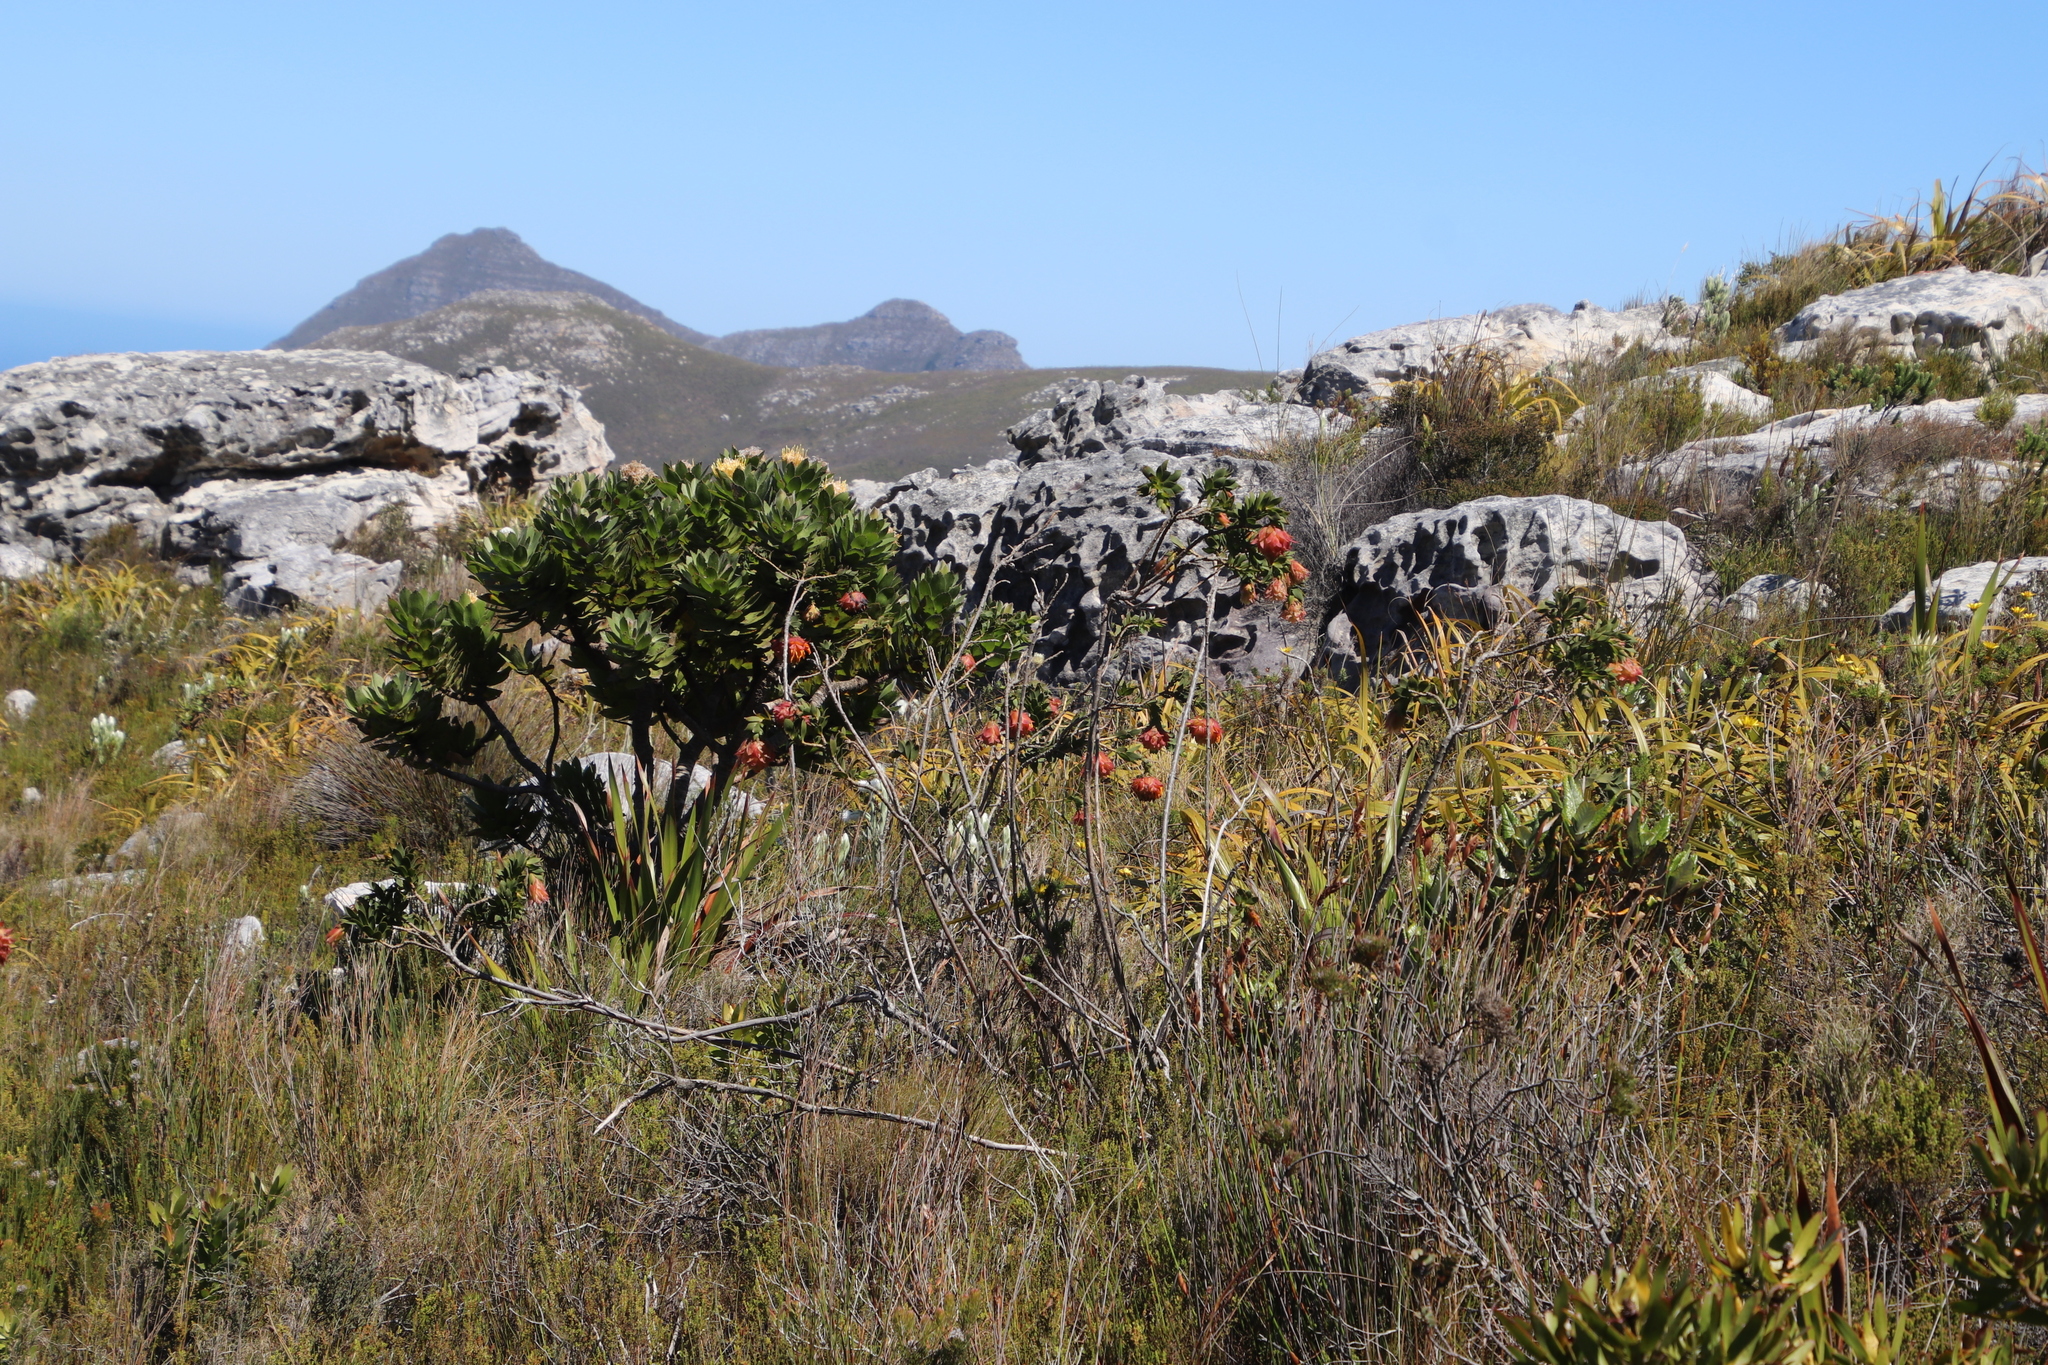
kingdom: Plantae
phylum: Tracheophyta
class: Magnoliopsida
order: Fabales
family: Fabaceae
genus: Liparia
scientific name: Liparia splendens
